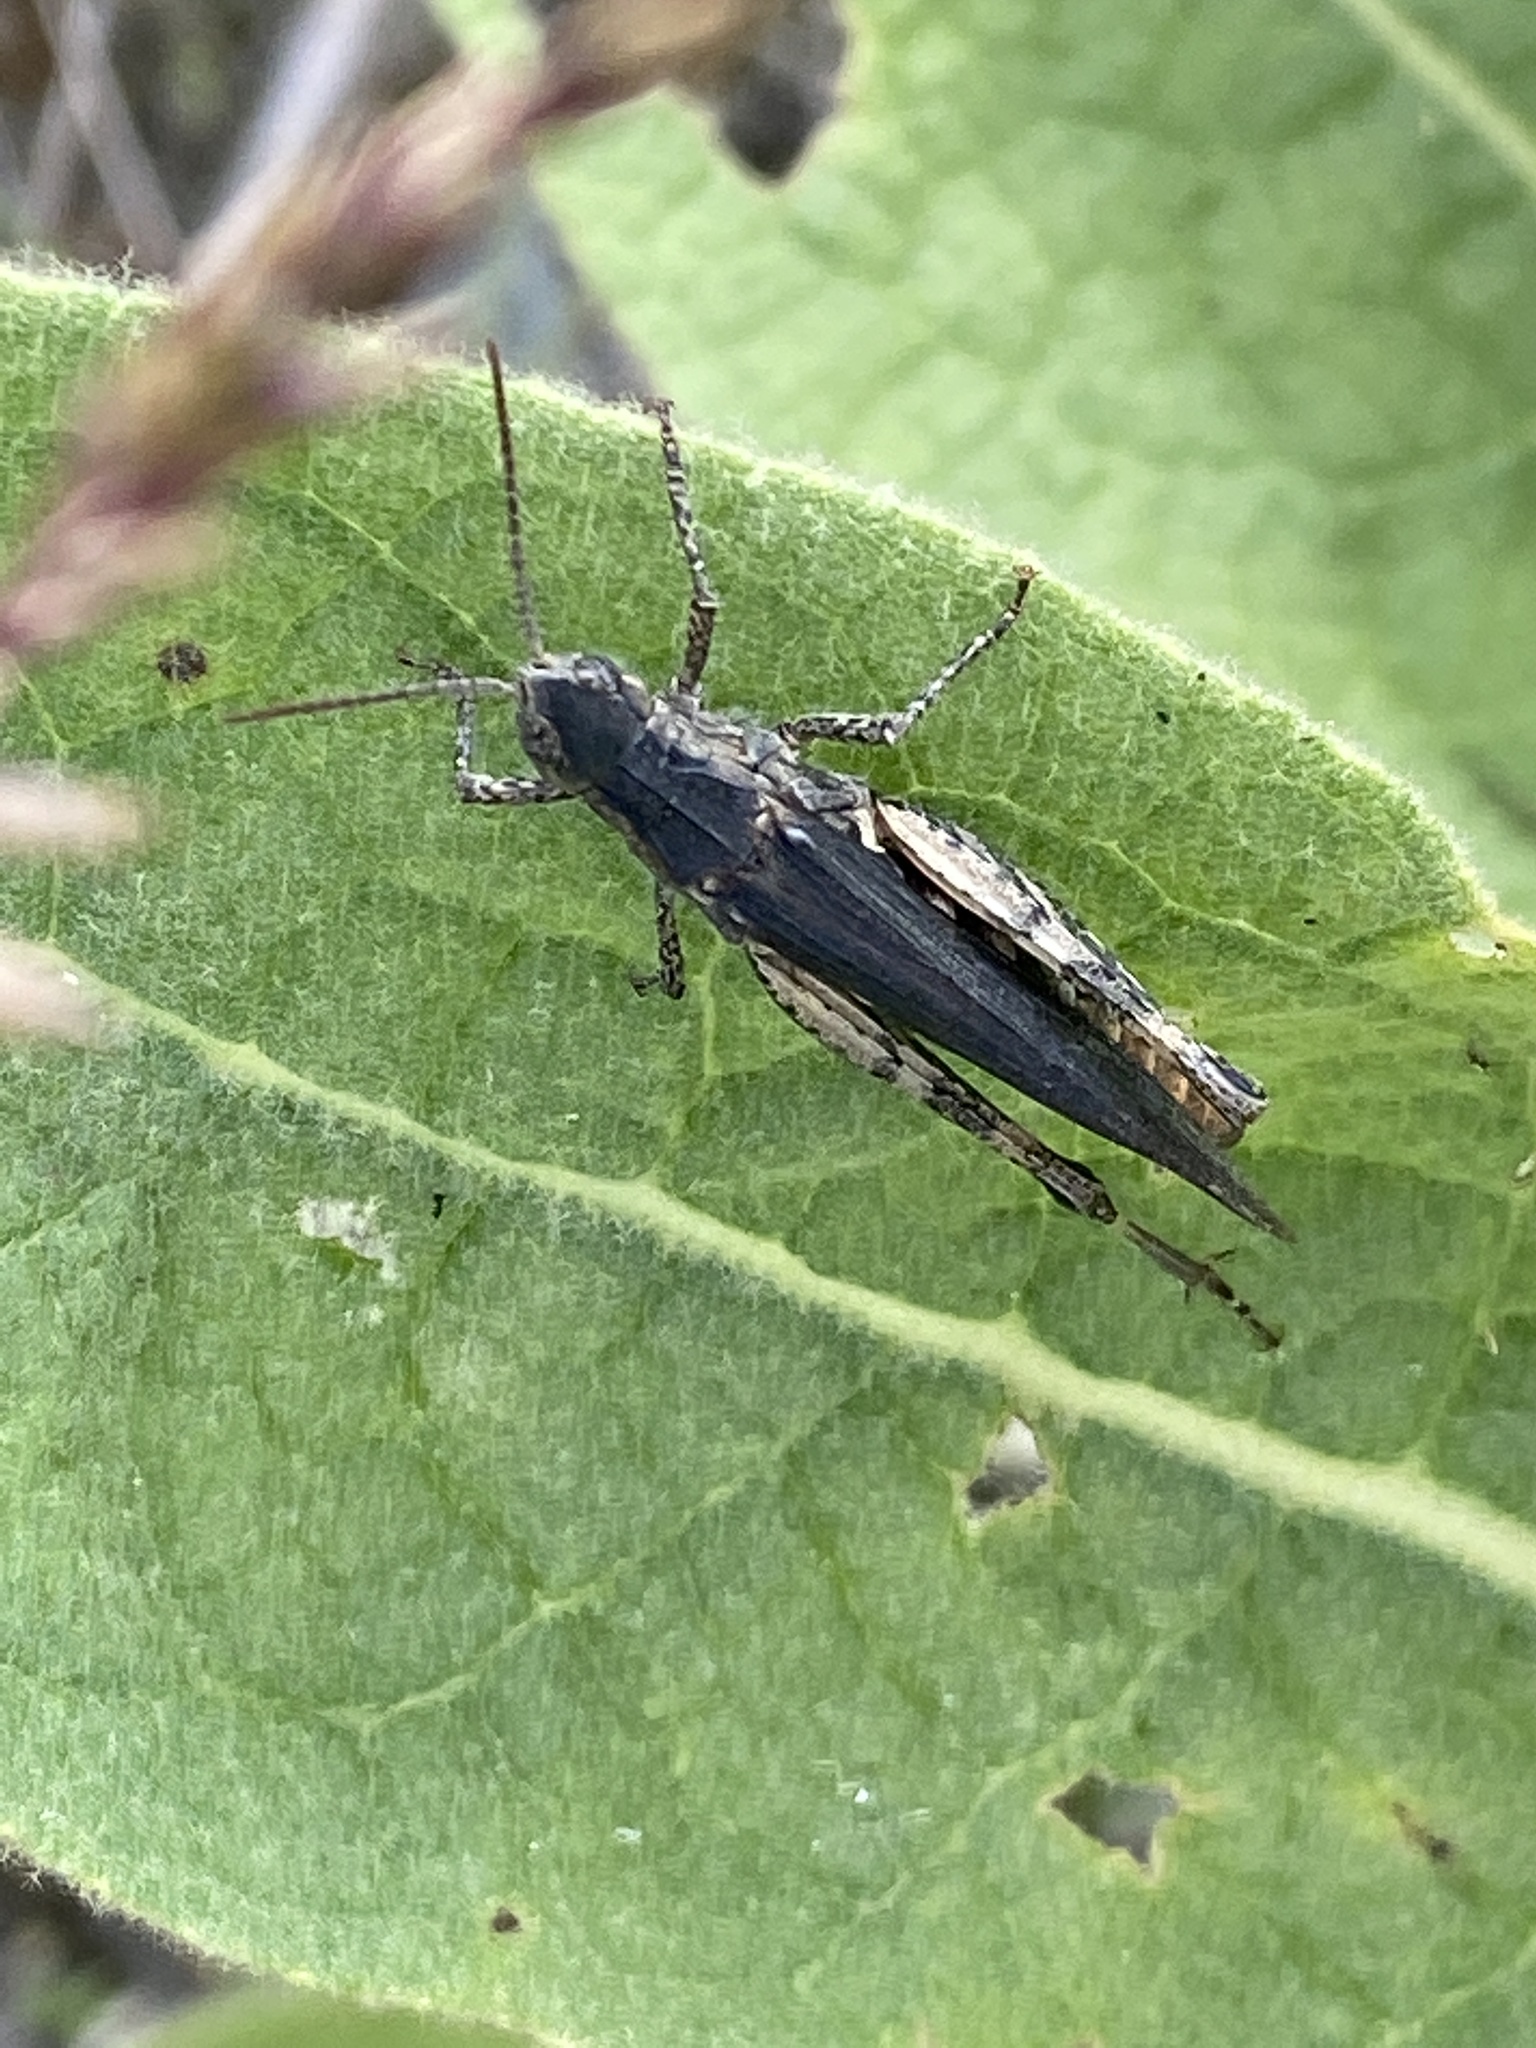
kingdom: Animalia
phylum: Arthropoda
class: Insecta
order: Orthoptera
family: Acrididae
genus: Chorthippus
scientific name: Chorthippus brunneus
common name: Field grasshopper
